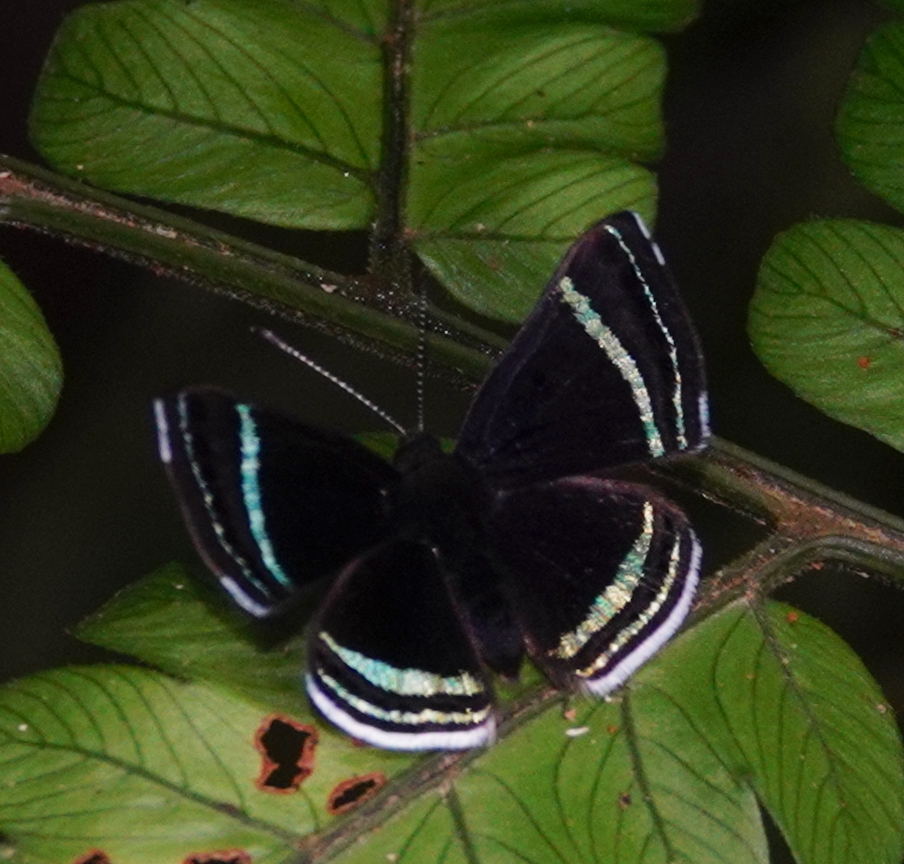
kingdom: Animalia
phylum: Arthropoda
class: Insecta
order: Lepidoptera
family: Riodinidae
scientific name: Riodinidae
